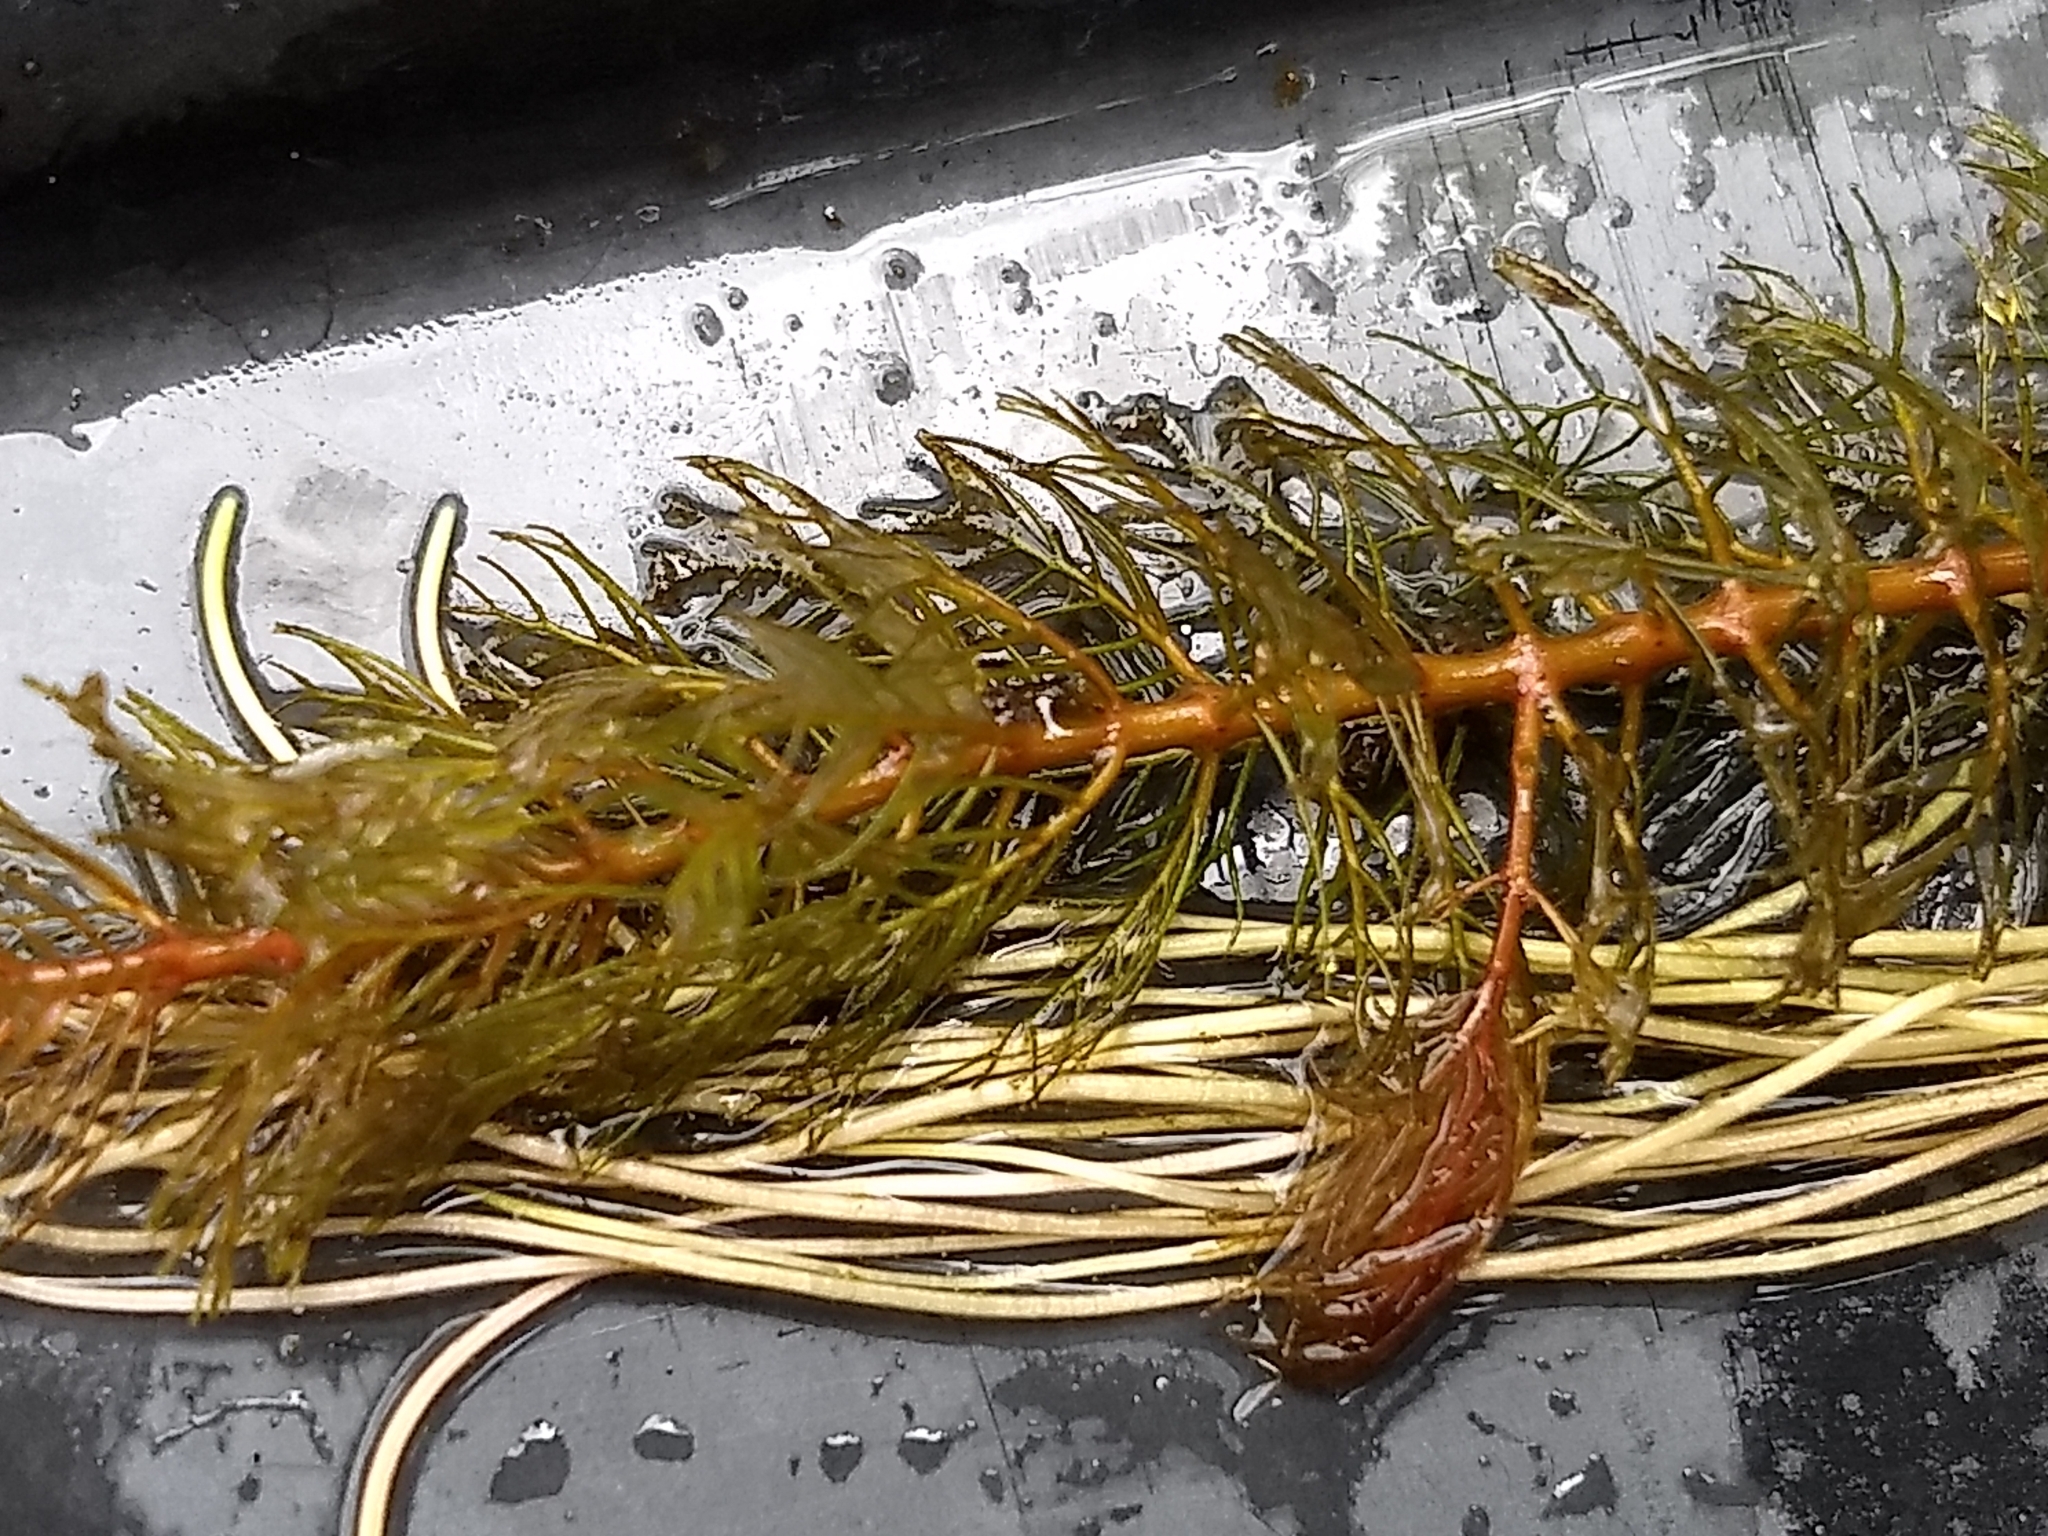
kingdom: Plantae
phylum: Tracheophyta
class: Magnoliopsida
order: Saxifragales
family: Haloragaceae
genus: Myriophyllum
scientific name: Myriophyllum spicatum
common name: Spiked water-milfoil
